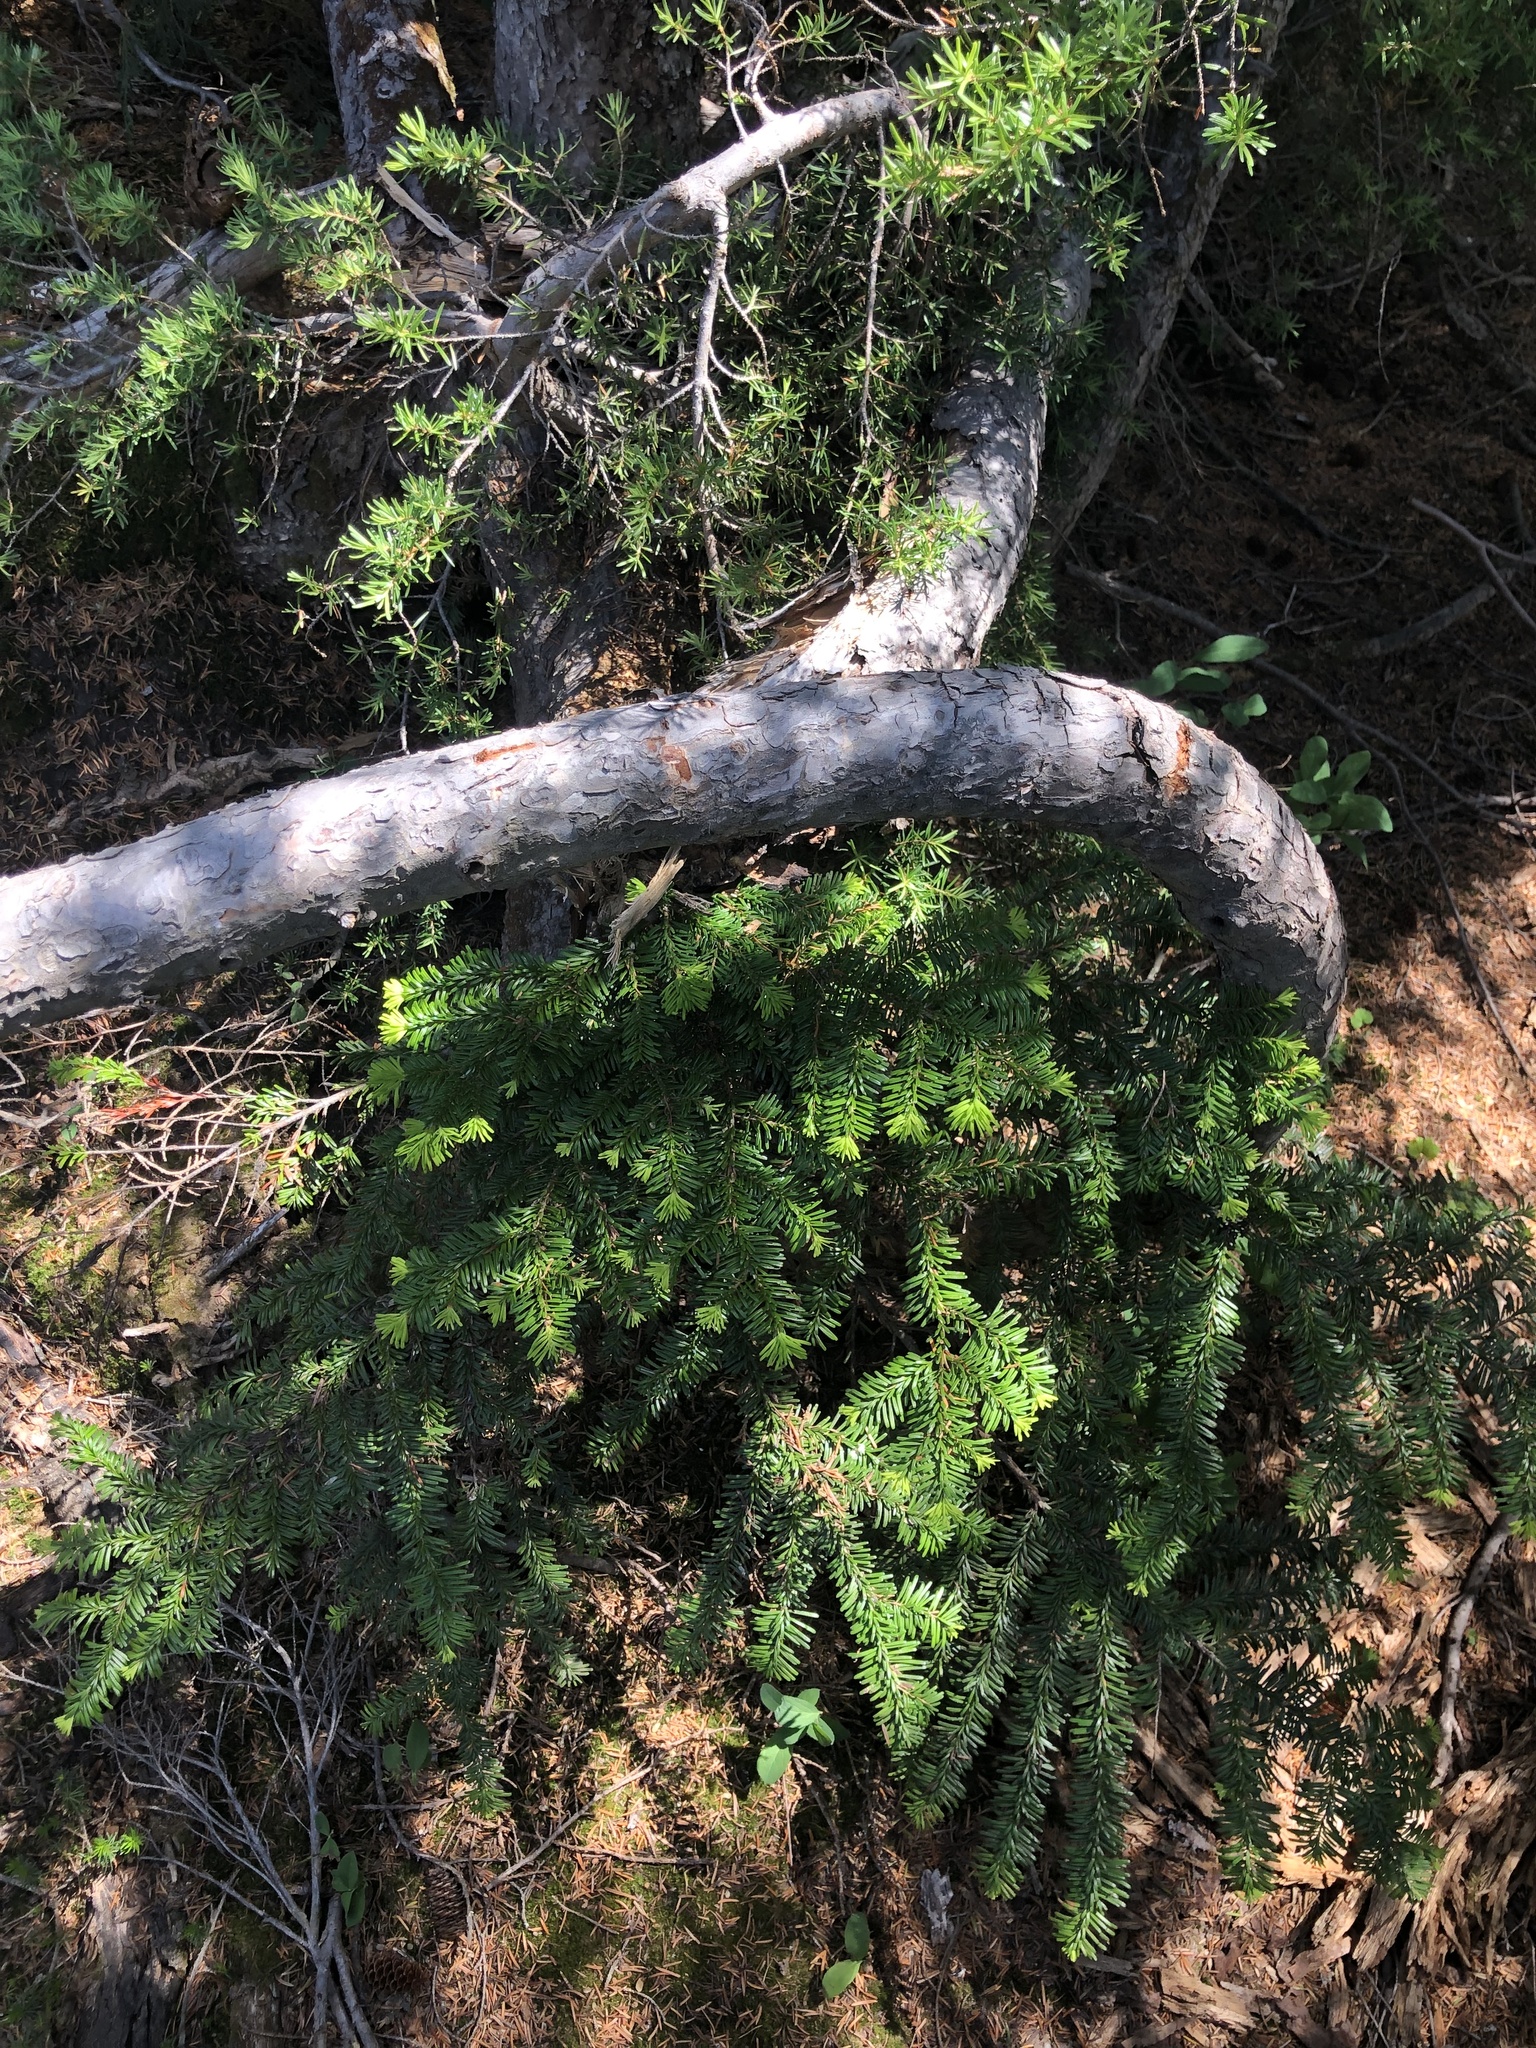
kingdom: Plantae
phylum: Tracheophyta
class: Pinopsida
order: Pinales
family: Pinaceae
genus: Abies
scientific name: Abies amabilis
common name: Pacific silver fir
